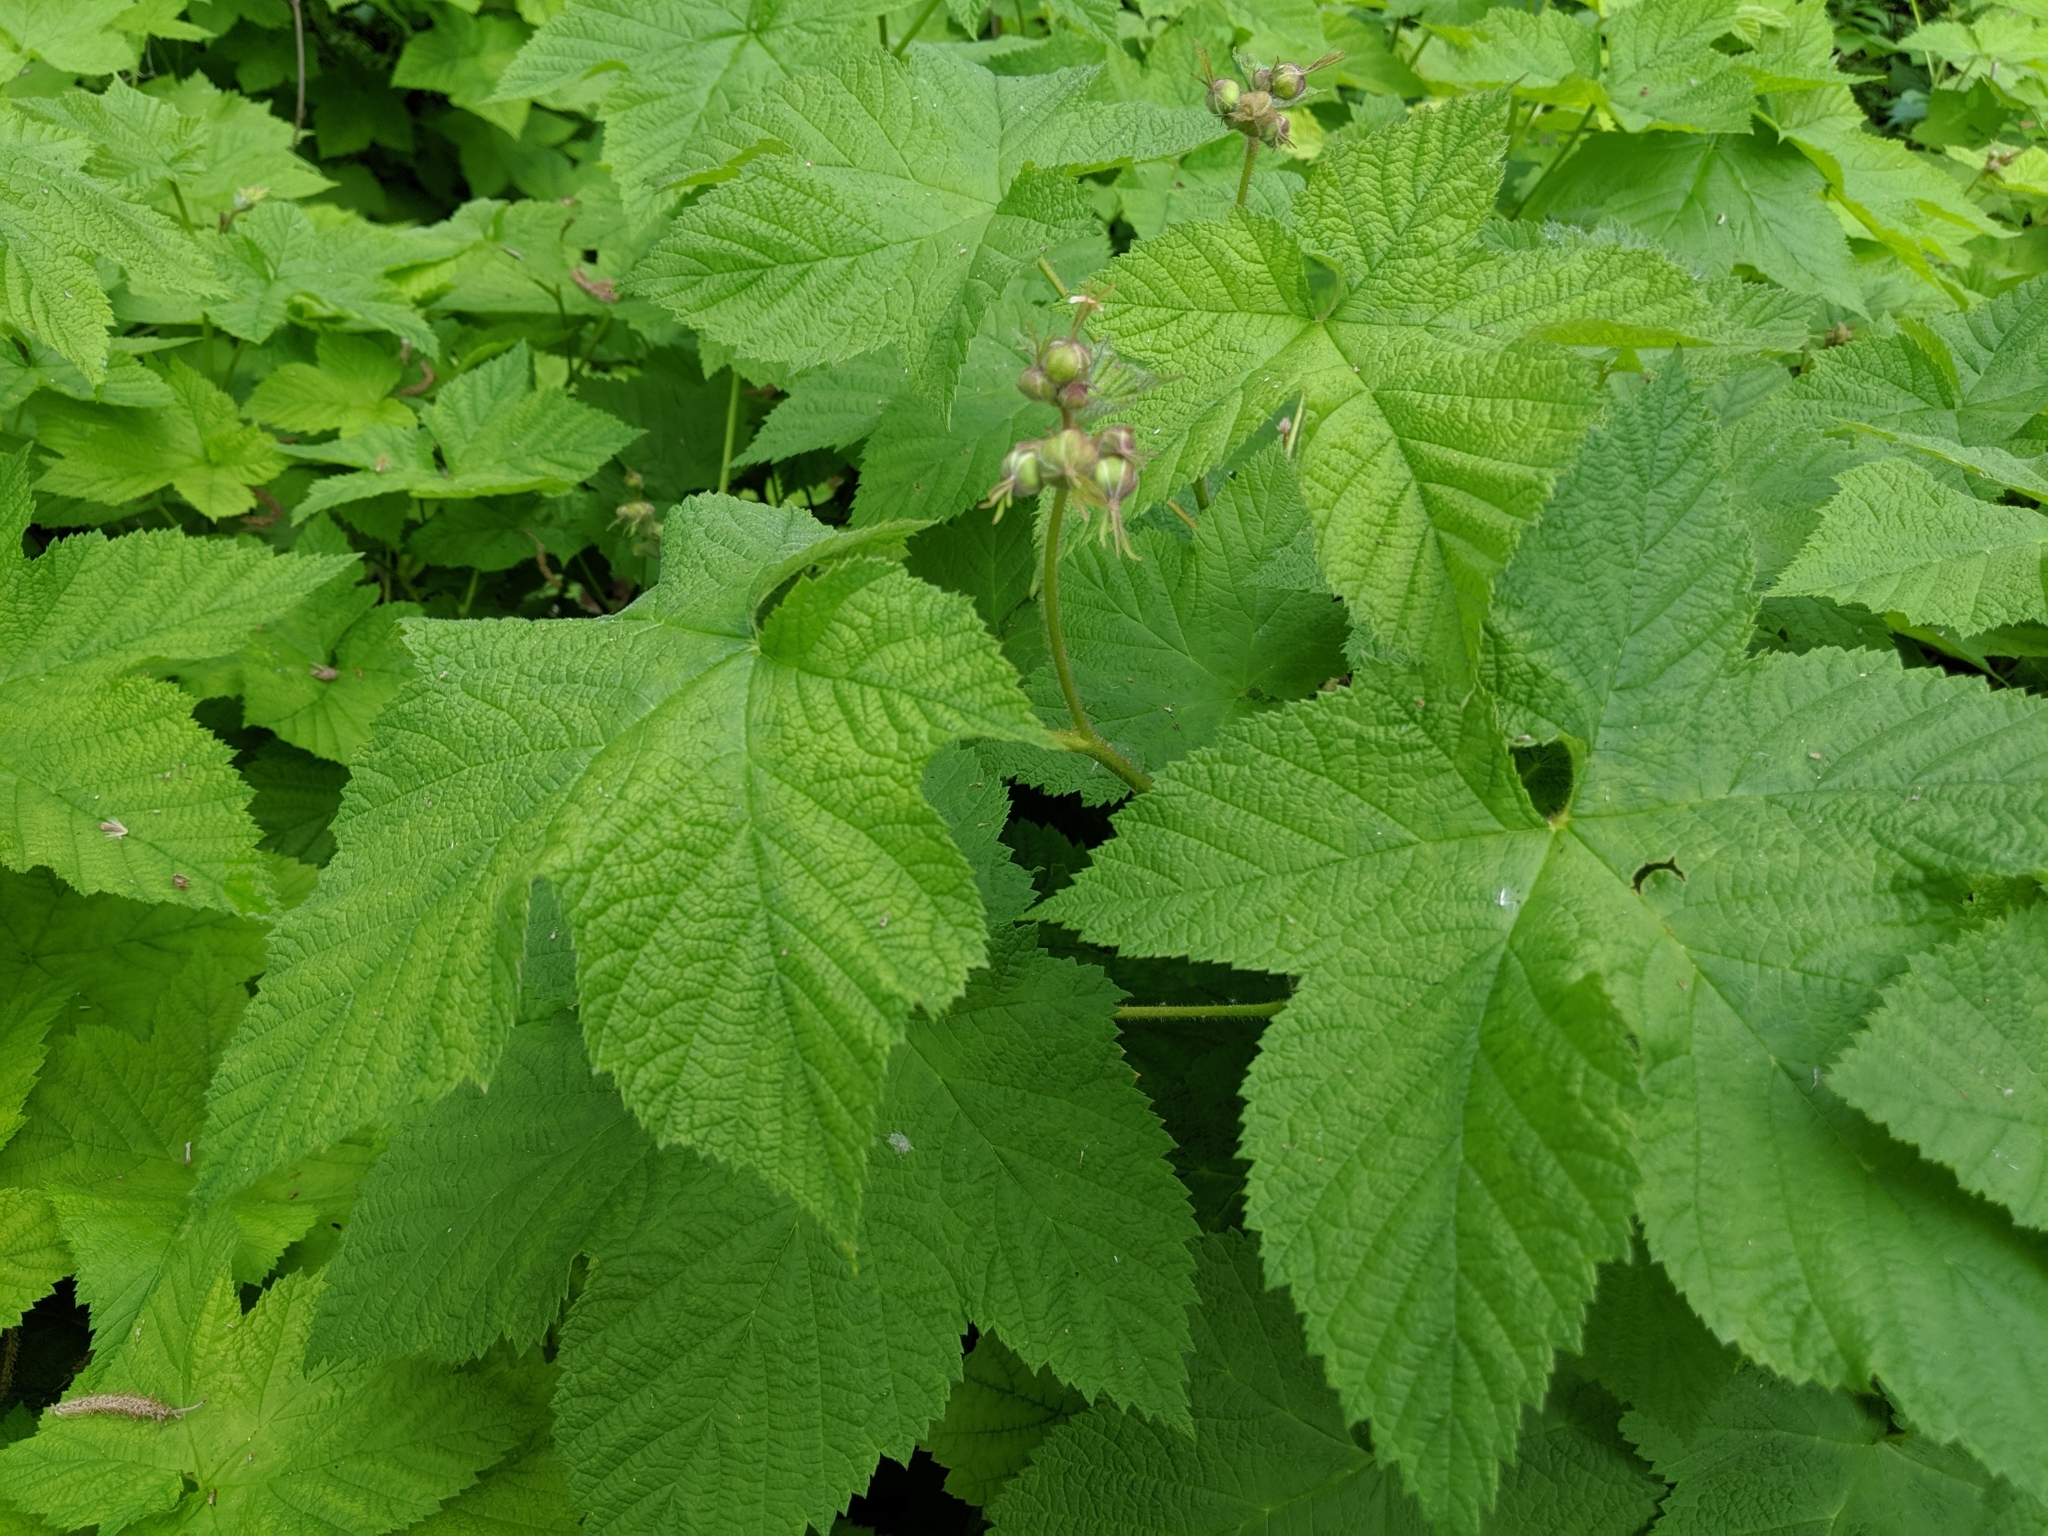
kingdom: Plantae
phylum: Tracheophyta
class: Magnoliopsida
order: Rosales
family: Rosaceae
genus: Rubus
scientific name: Rubus parviflorus
